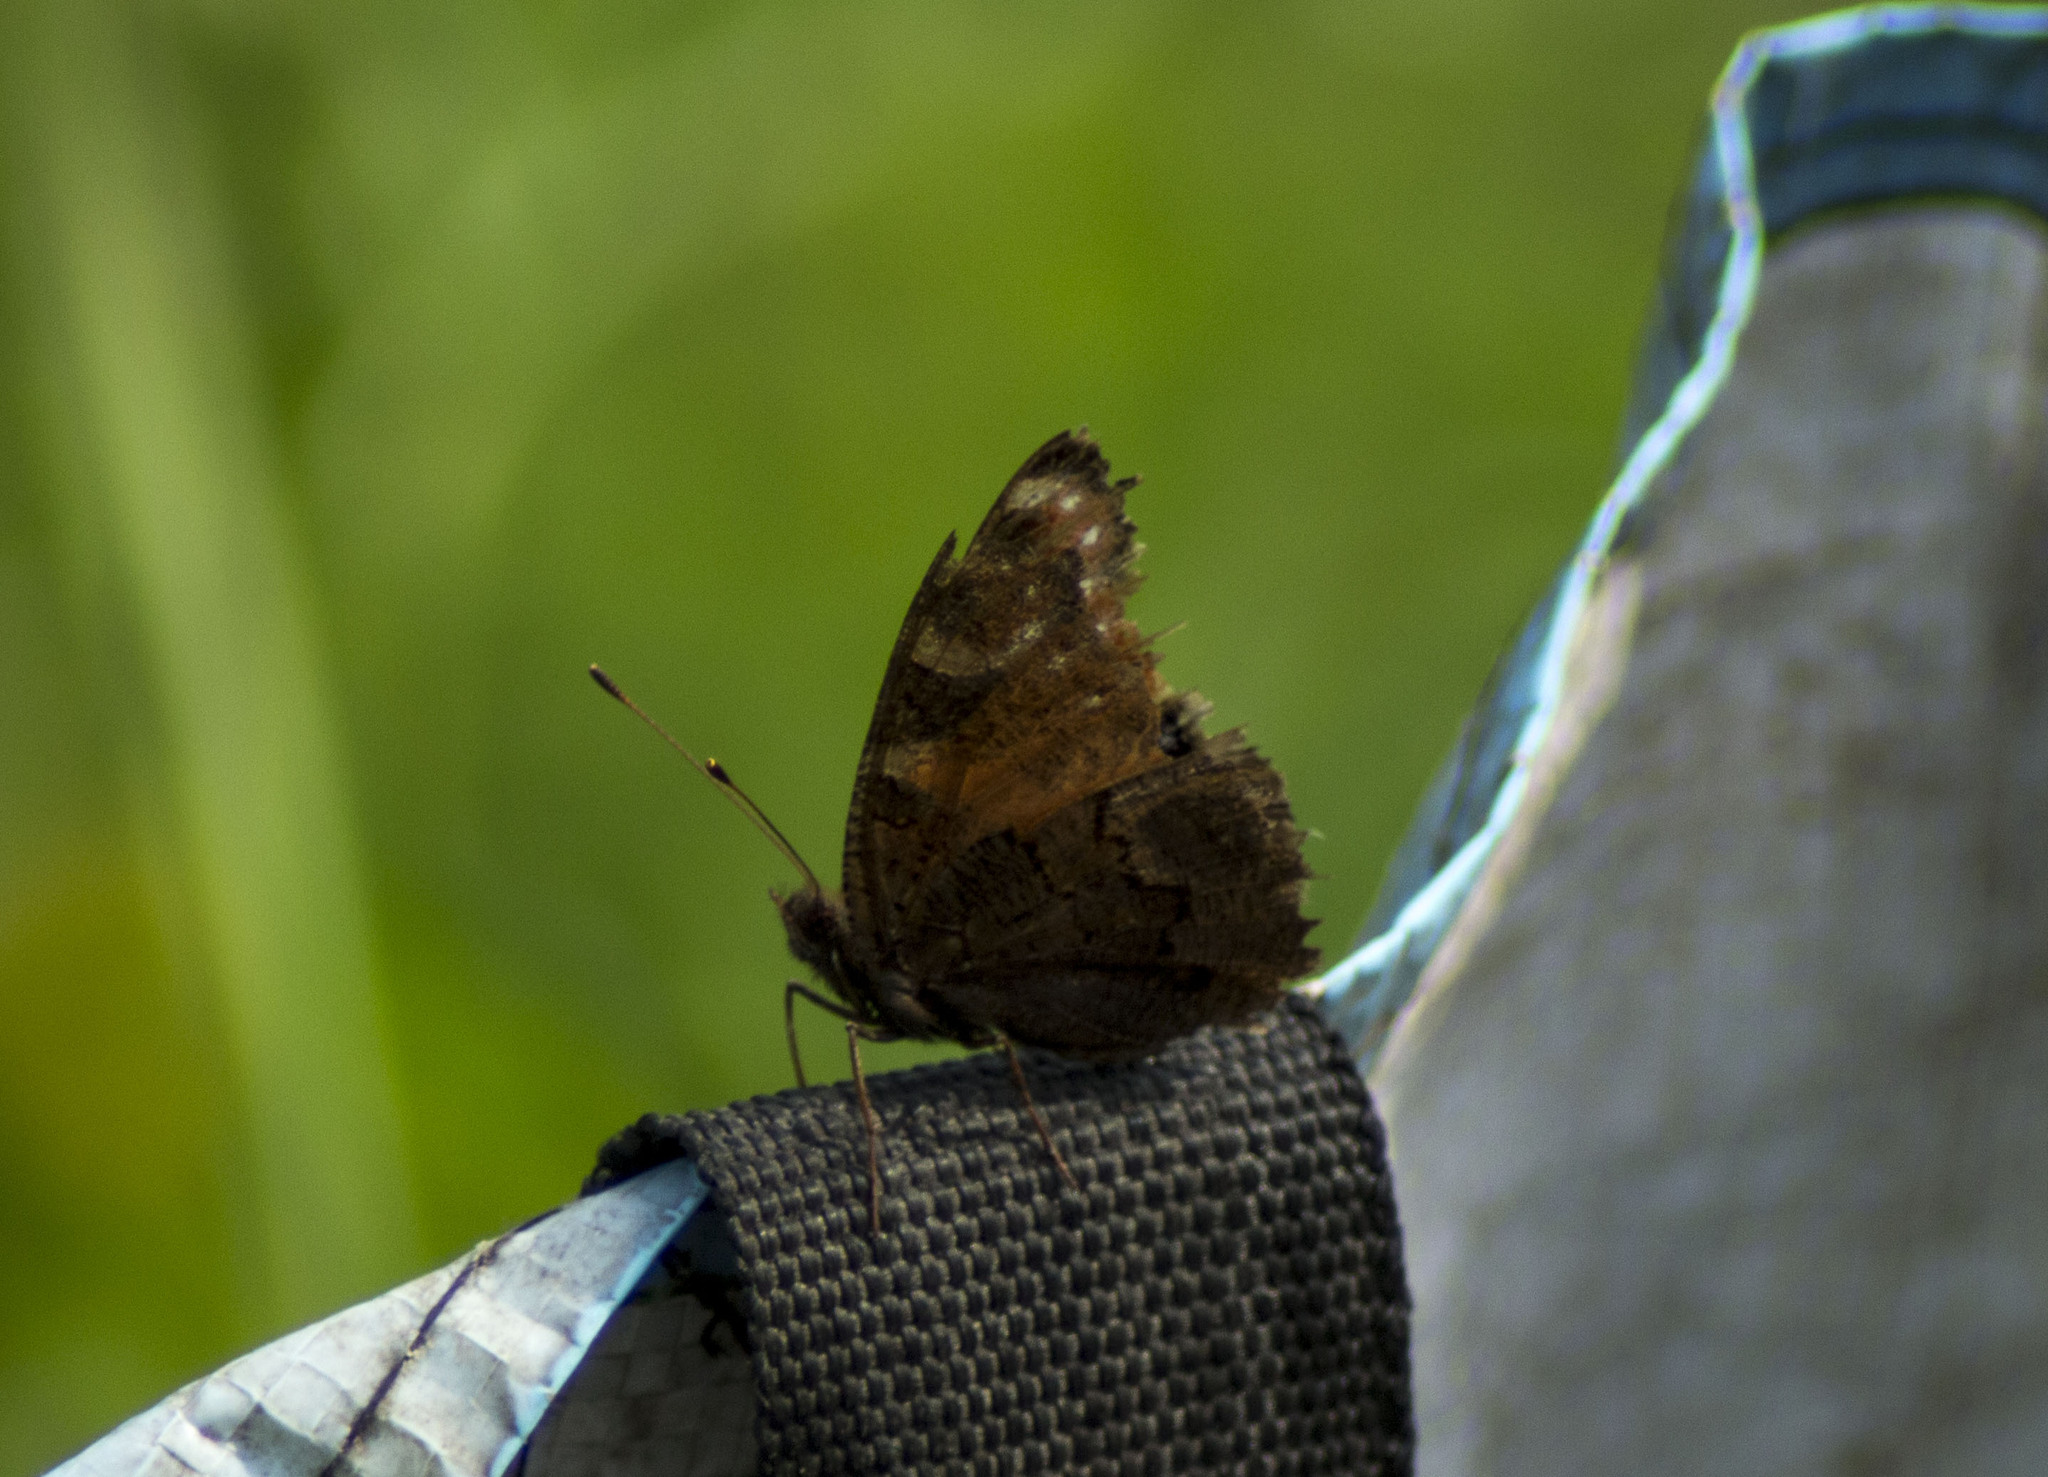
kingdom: Animalia
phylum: Arthropoda
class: Insecta
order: Lepidoptera
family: Nymphalidae
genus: Aglais
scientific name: Aglais io
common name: Peacock
